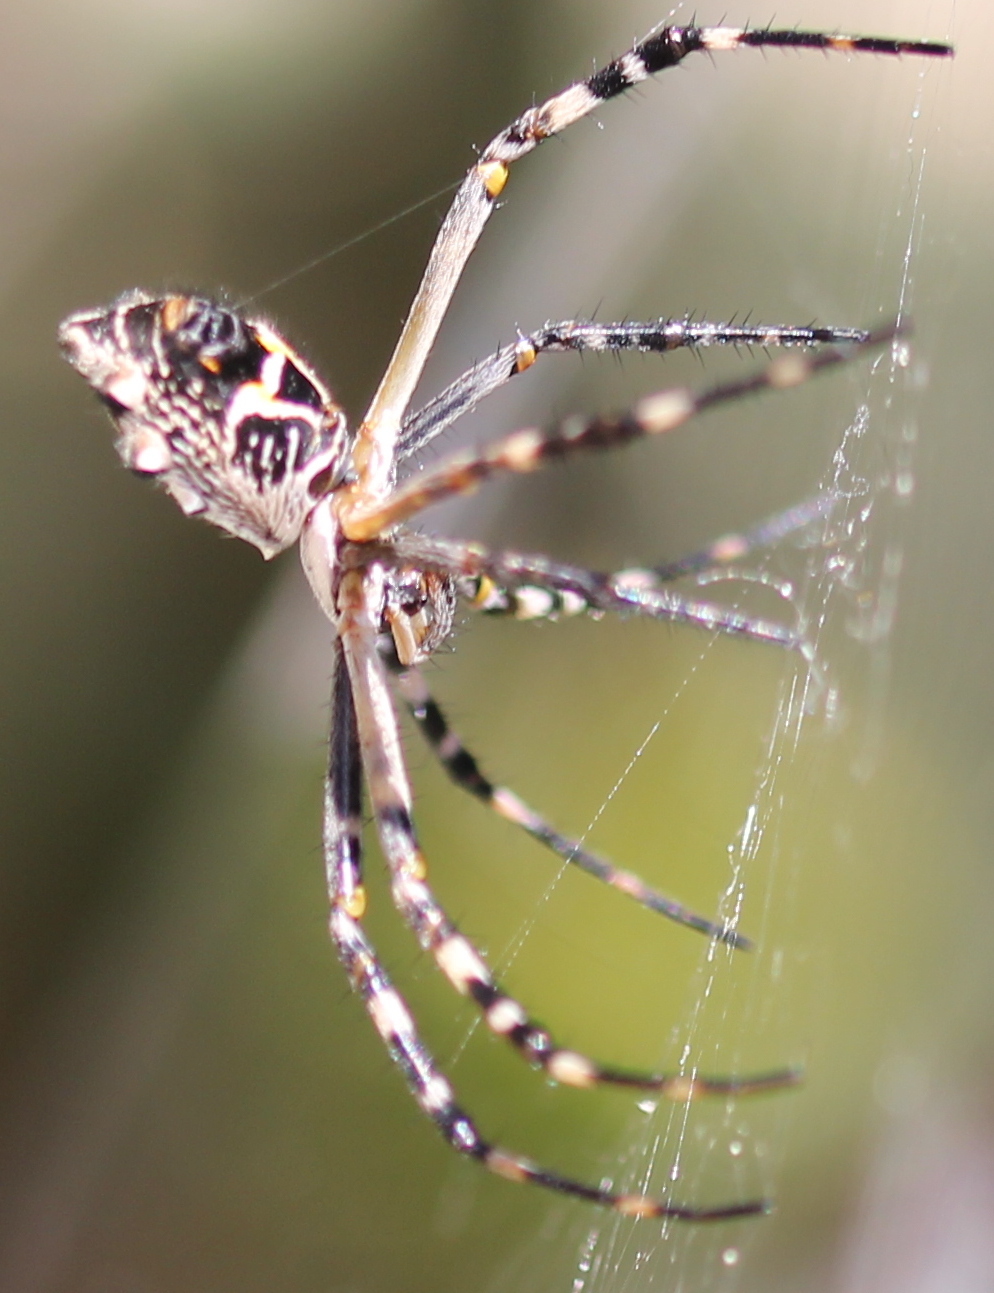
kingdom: Animalia
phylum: Arthropoda
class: Arachnida
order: Araneae
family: Araneidae
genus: Argiope
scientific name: Argiope argentata
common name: Orb weavers
